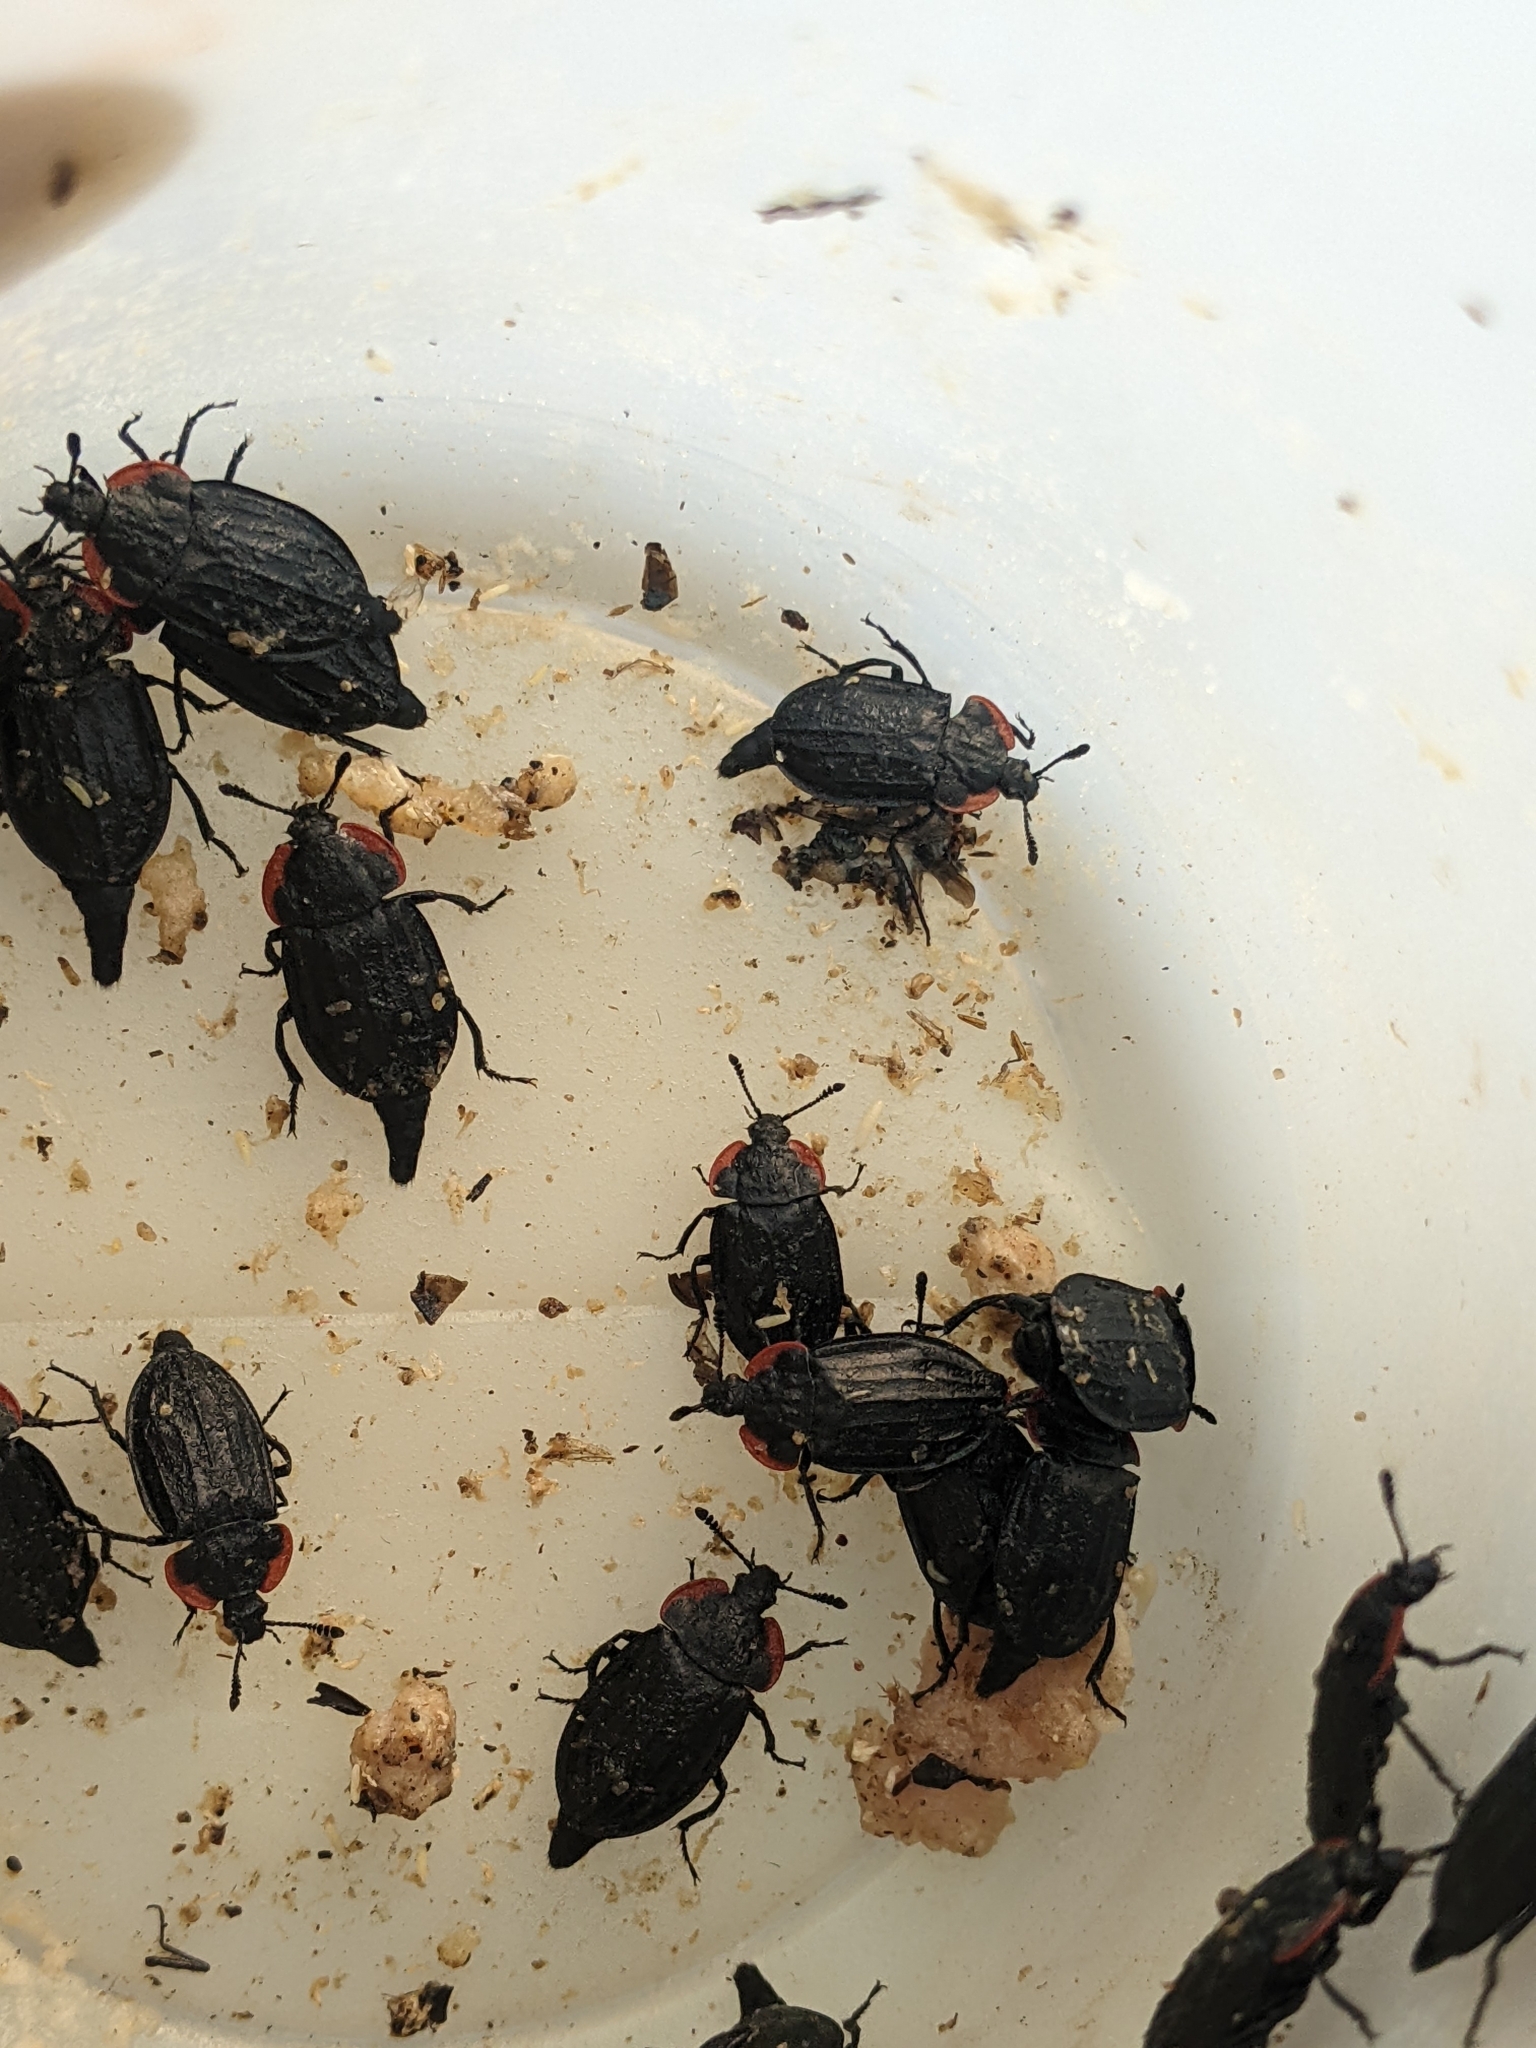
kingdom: Animalia
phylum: Arthropoda
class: Insecta
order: Coleoptera
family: Staphylinidae
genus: Oiceoptoma
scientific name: Oiceoptoma nakabayashii
